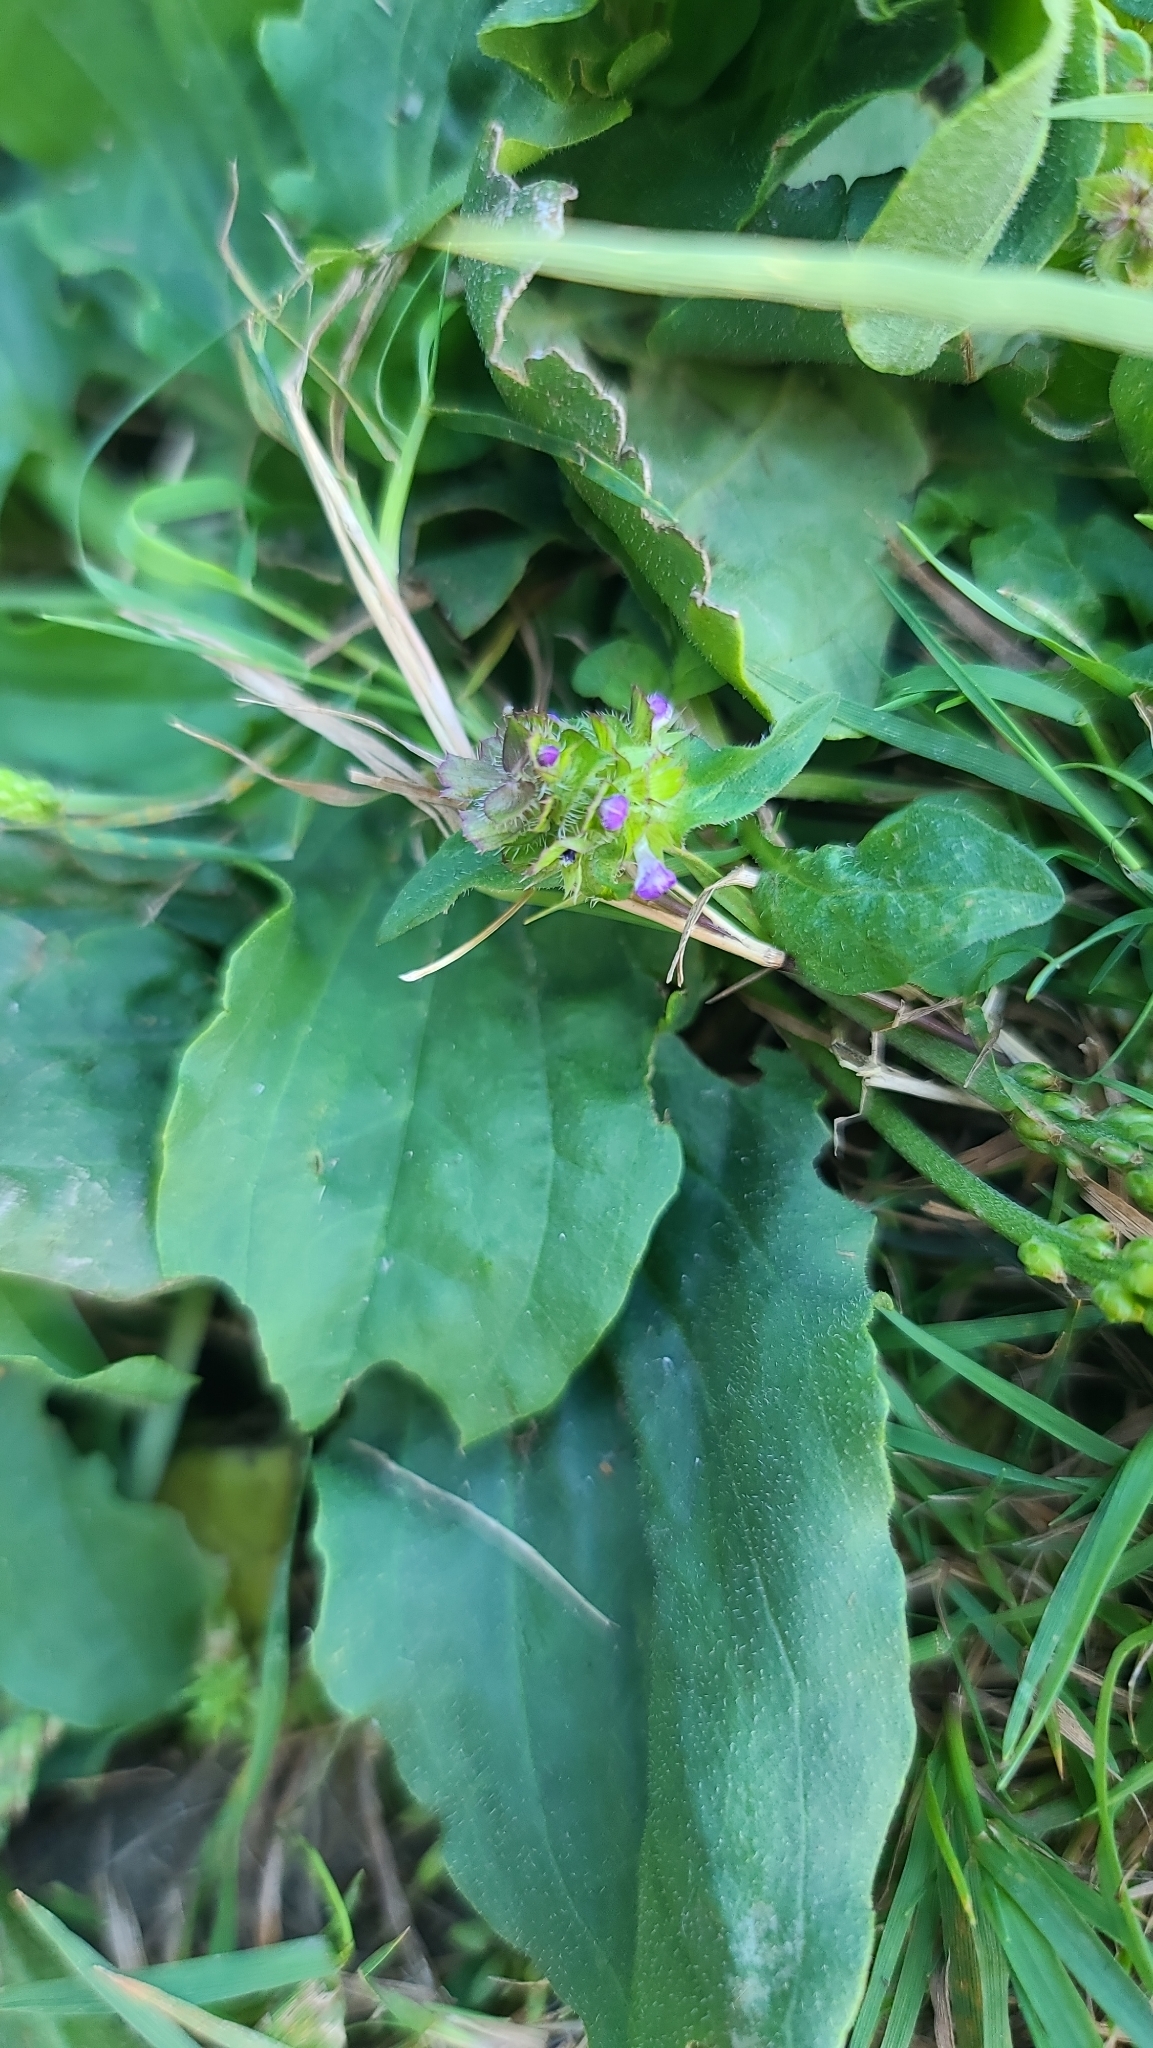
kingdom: Plantae
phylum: Tracheophyta
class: Magnoliopsida
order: Lamiales
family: Lamiaceae
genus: Prunella
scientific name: Prunella vulgaris
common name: Heal-all
